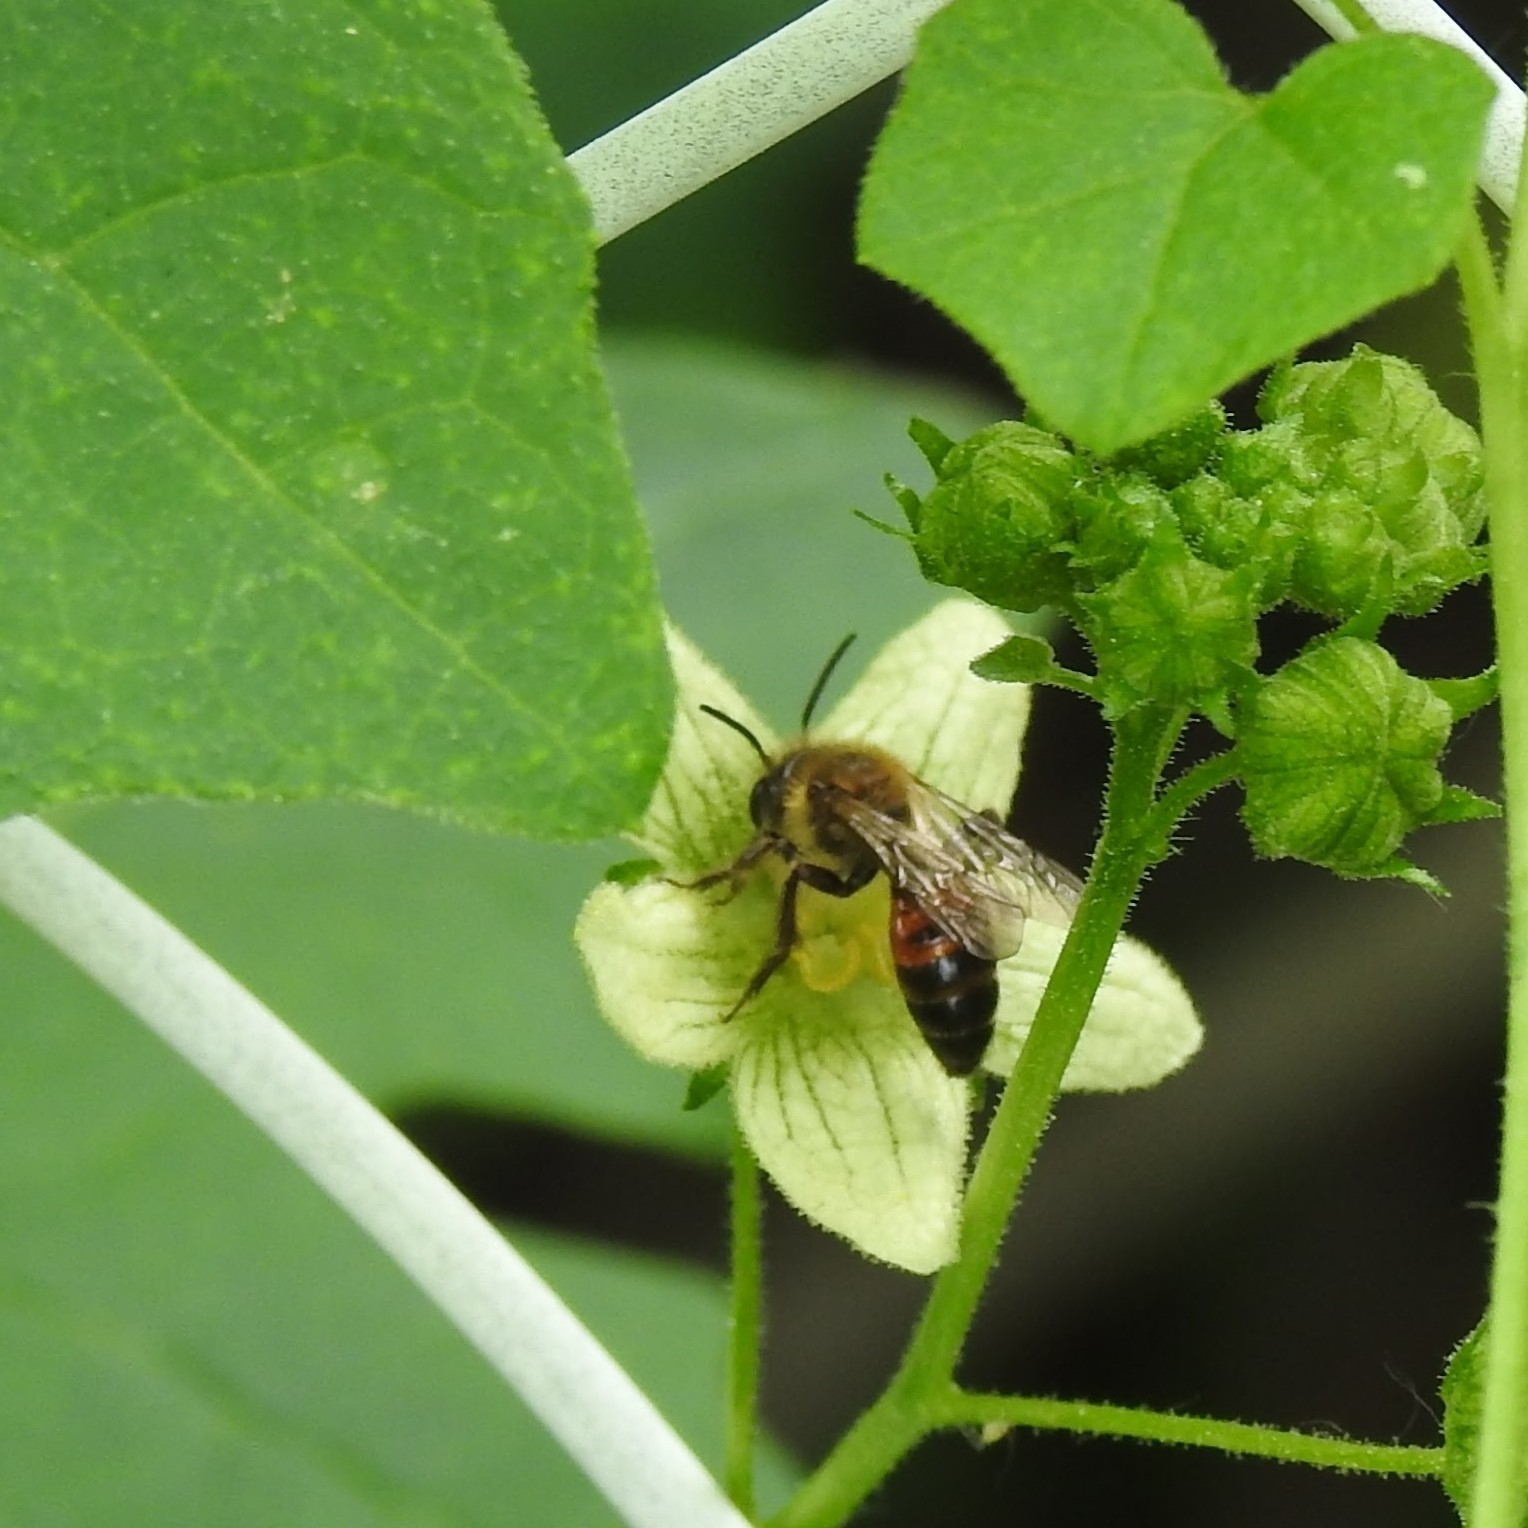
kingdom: Animalia
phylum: Arthropoda
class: Insecta
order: Hymenoptera
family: Andrenidae
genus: Andrena
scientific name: Andrena florea
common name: Bryony mining bee
